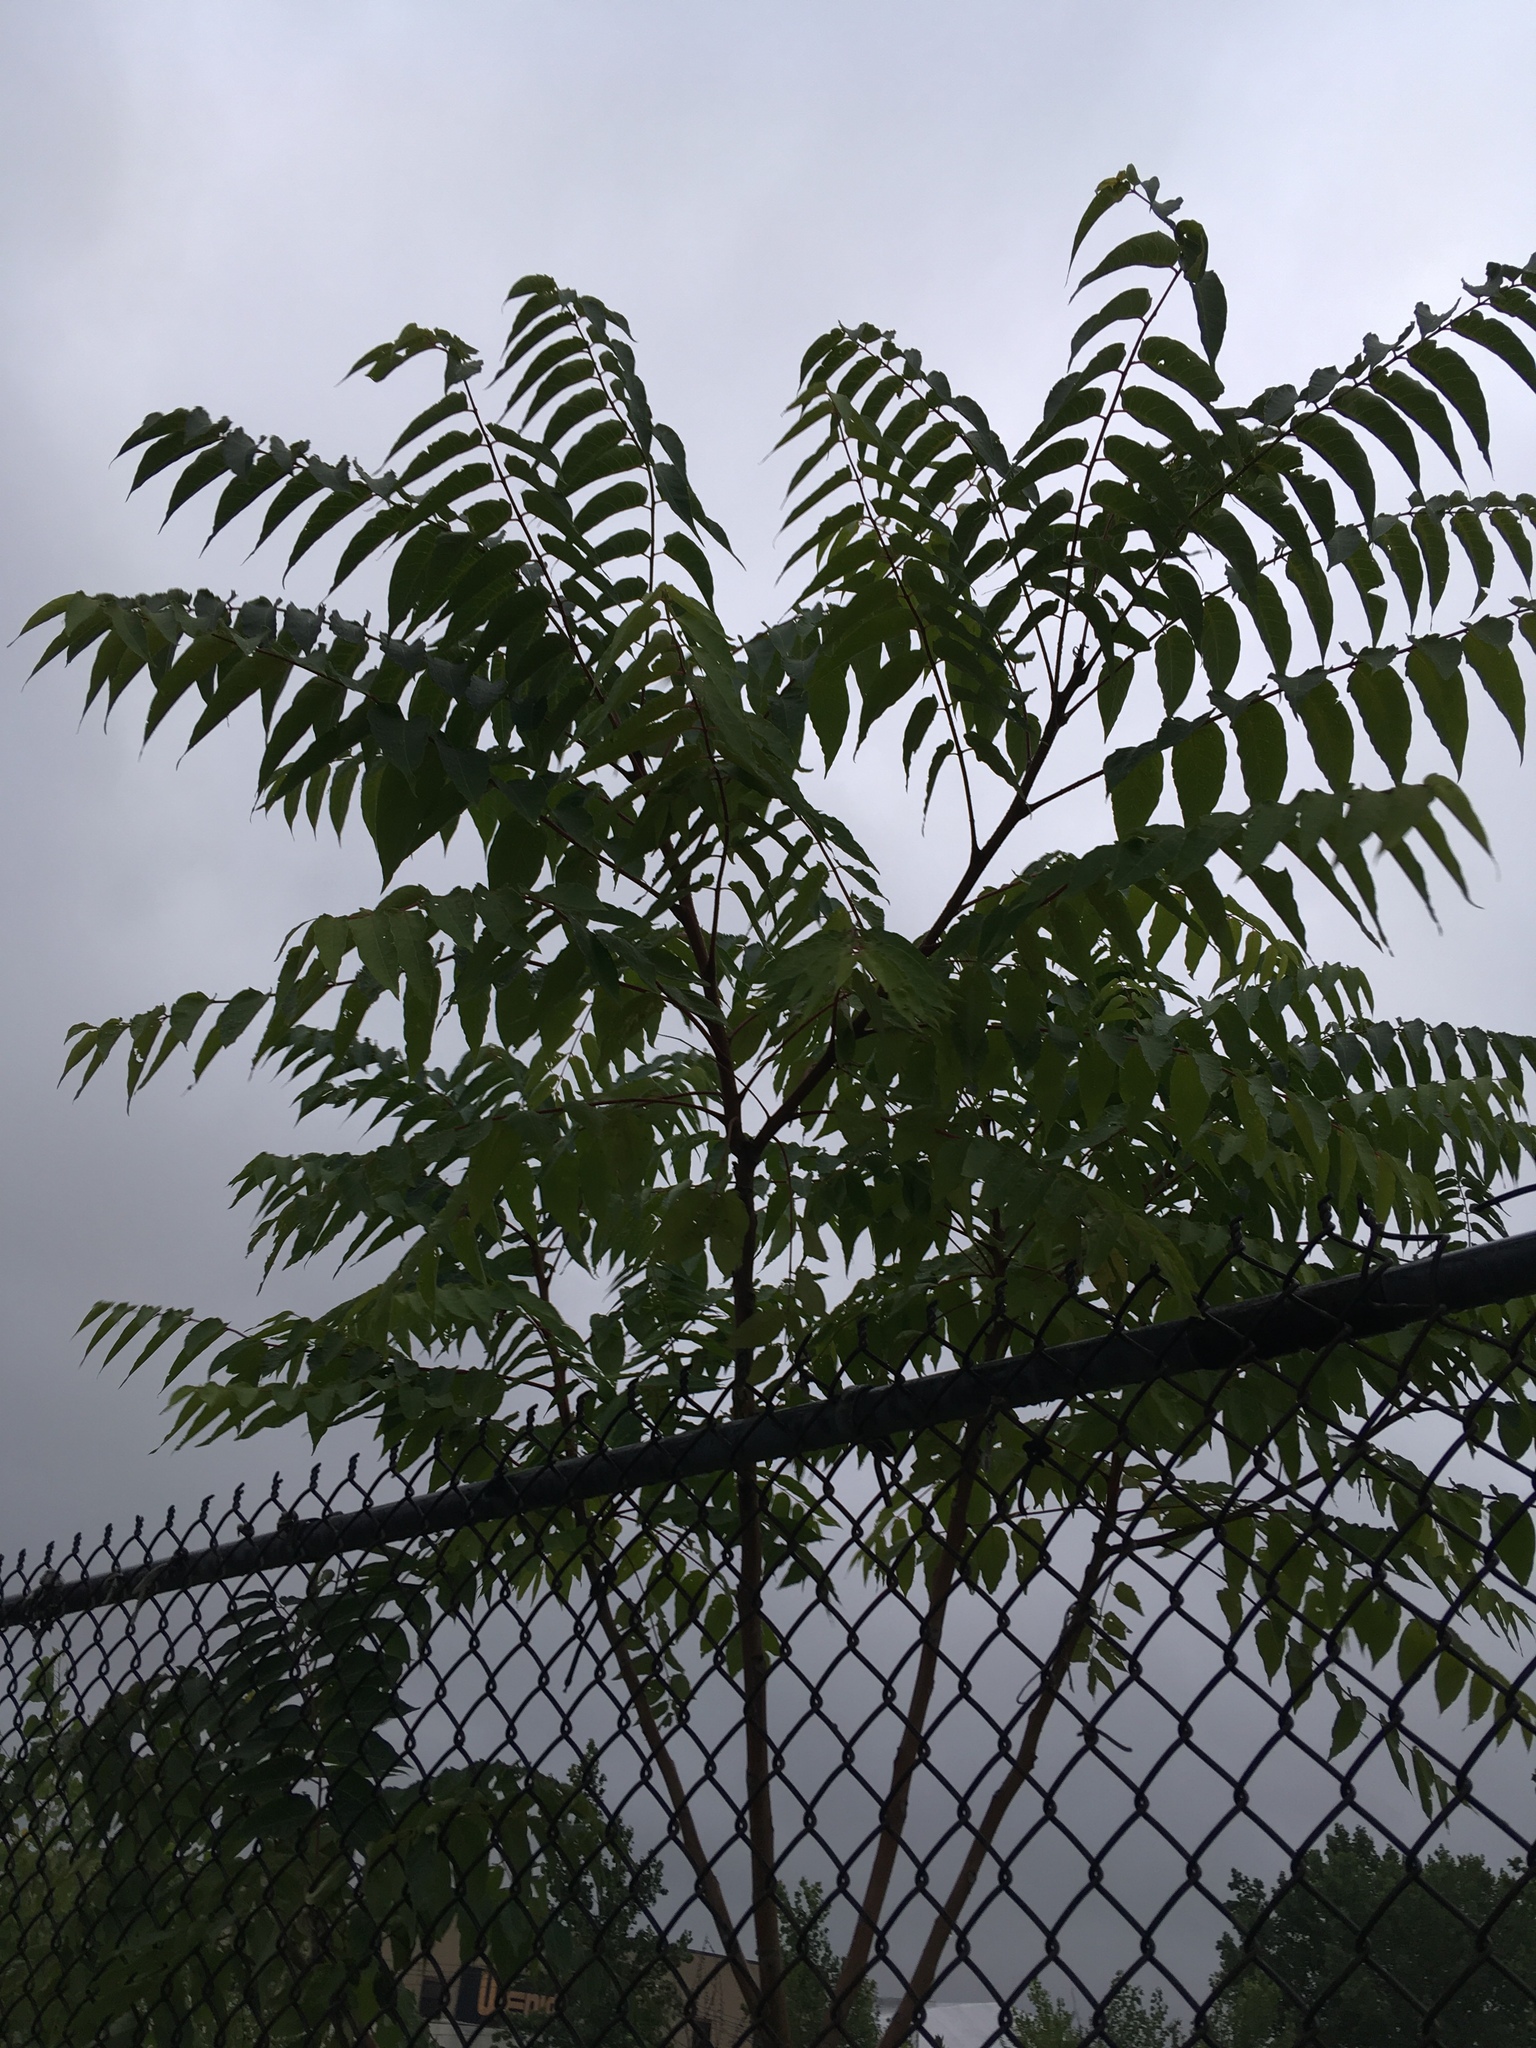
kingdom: Plantae
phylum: Tracheophyta
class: Magnoliopsida
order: Sapindales
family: Simaroubaceae
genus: Ailanthus
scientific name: Ailanthus altissima
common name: Tree-of-heaven
